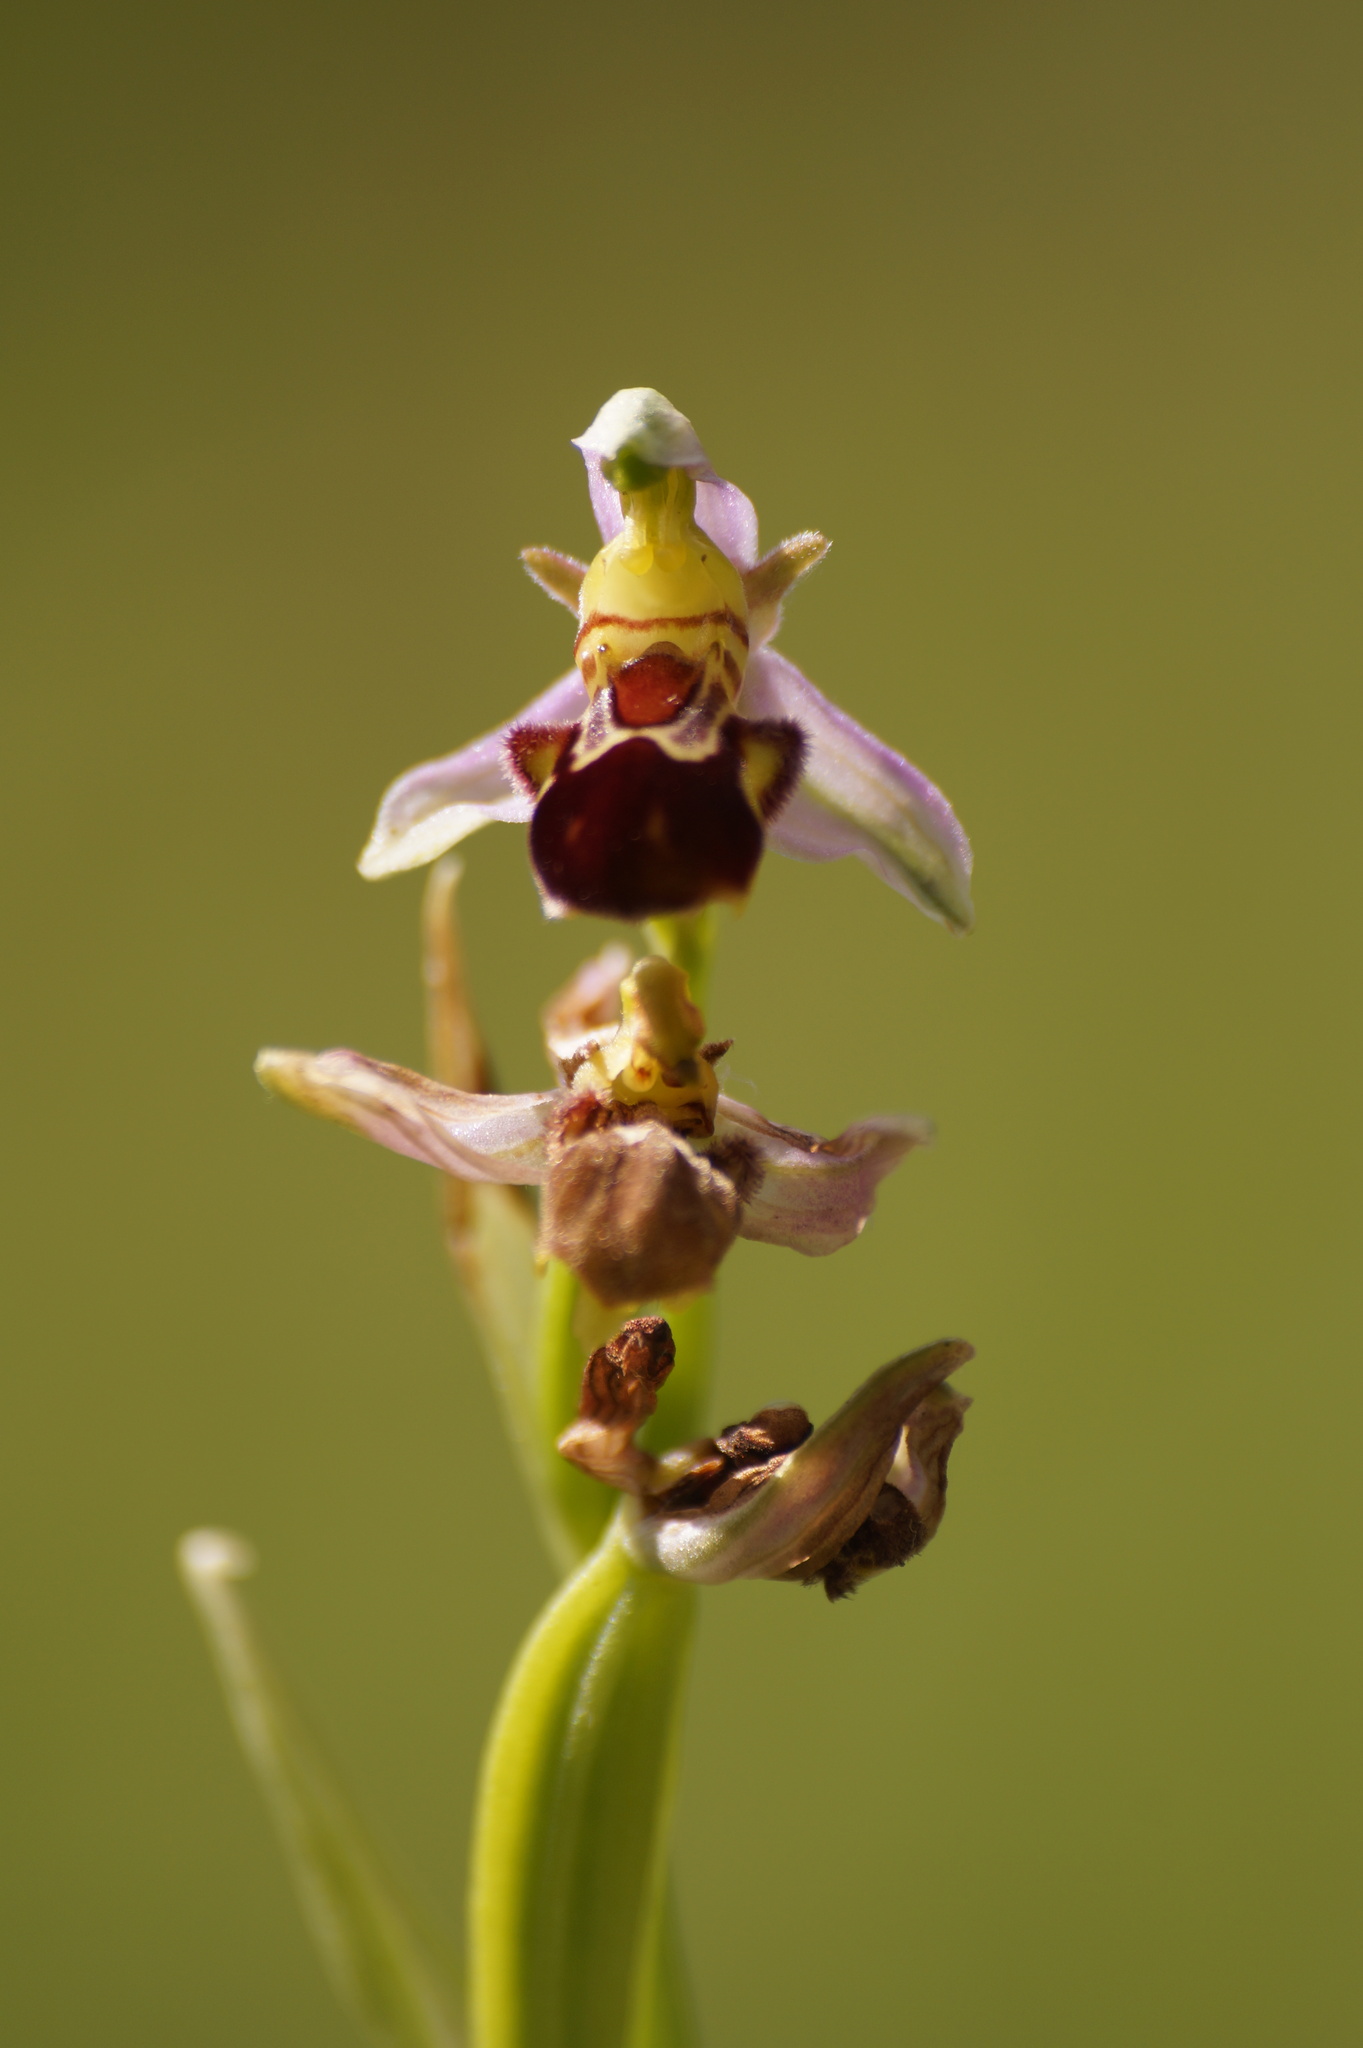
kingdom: Plantae
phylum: Tracheophyta
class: Liliopsida
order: Asparagales
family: Orchidaceae
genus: Ophrys
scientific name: Ophrys apifera
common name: Bee orchid
